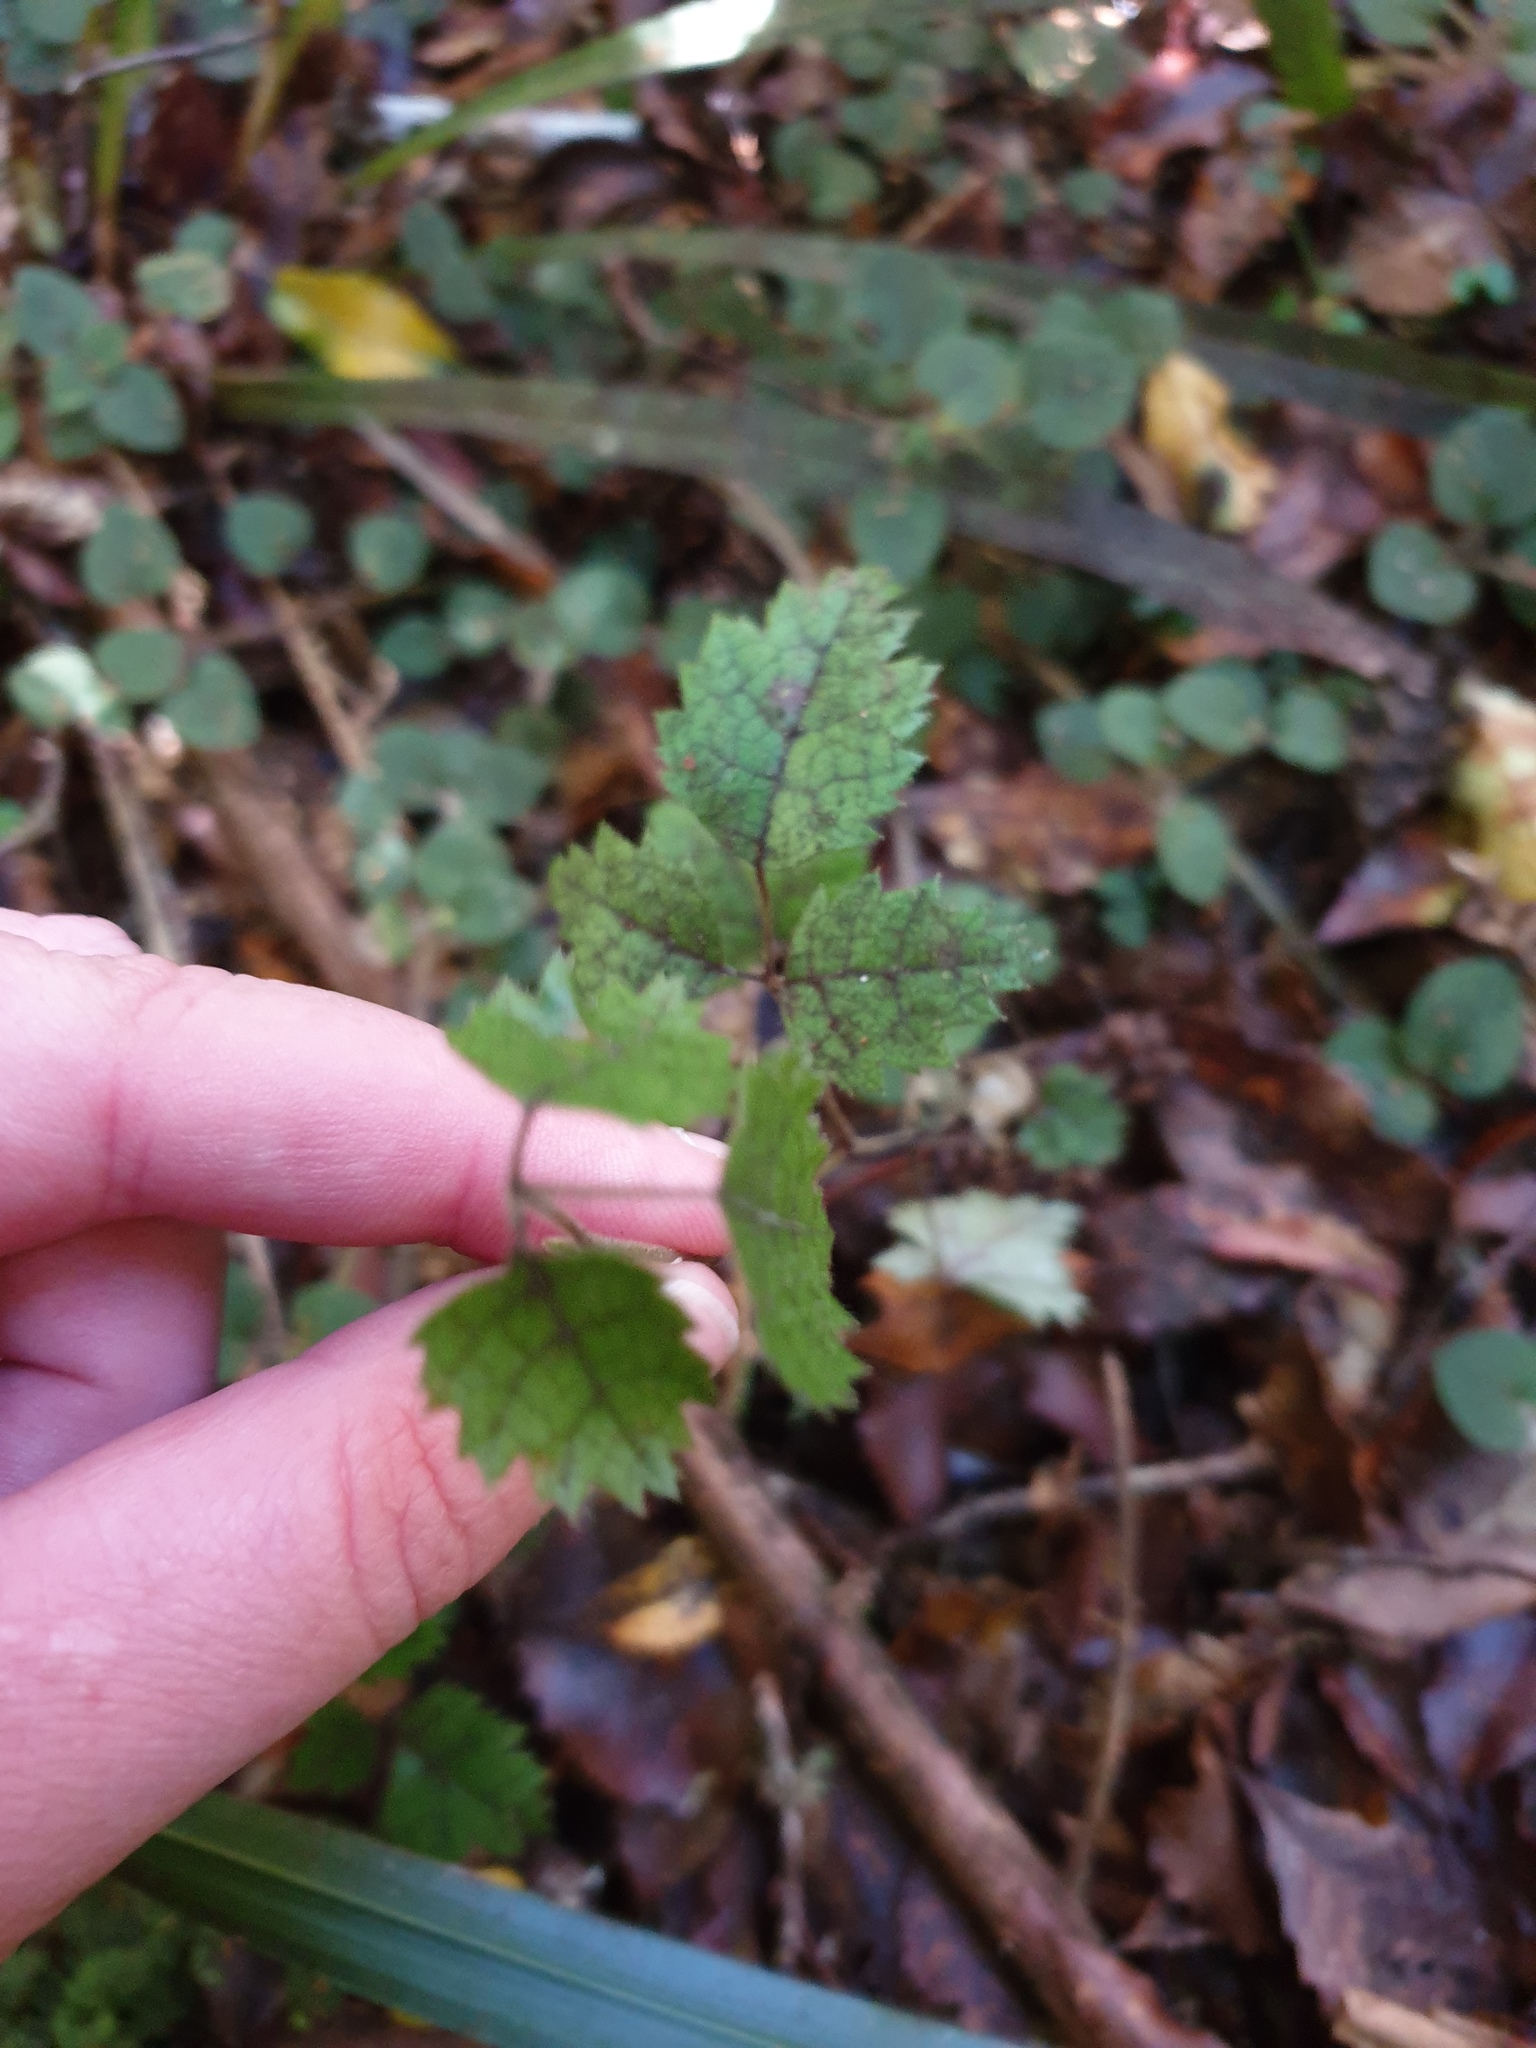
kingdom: Plantae
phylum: Tracheophyta
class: Magnoliopsida
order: Rosales
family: Rosaceae
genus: Rubus
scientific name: Rubus australis
